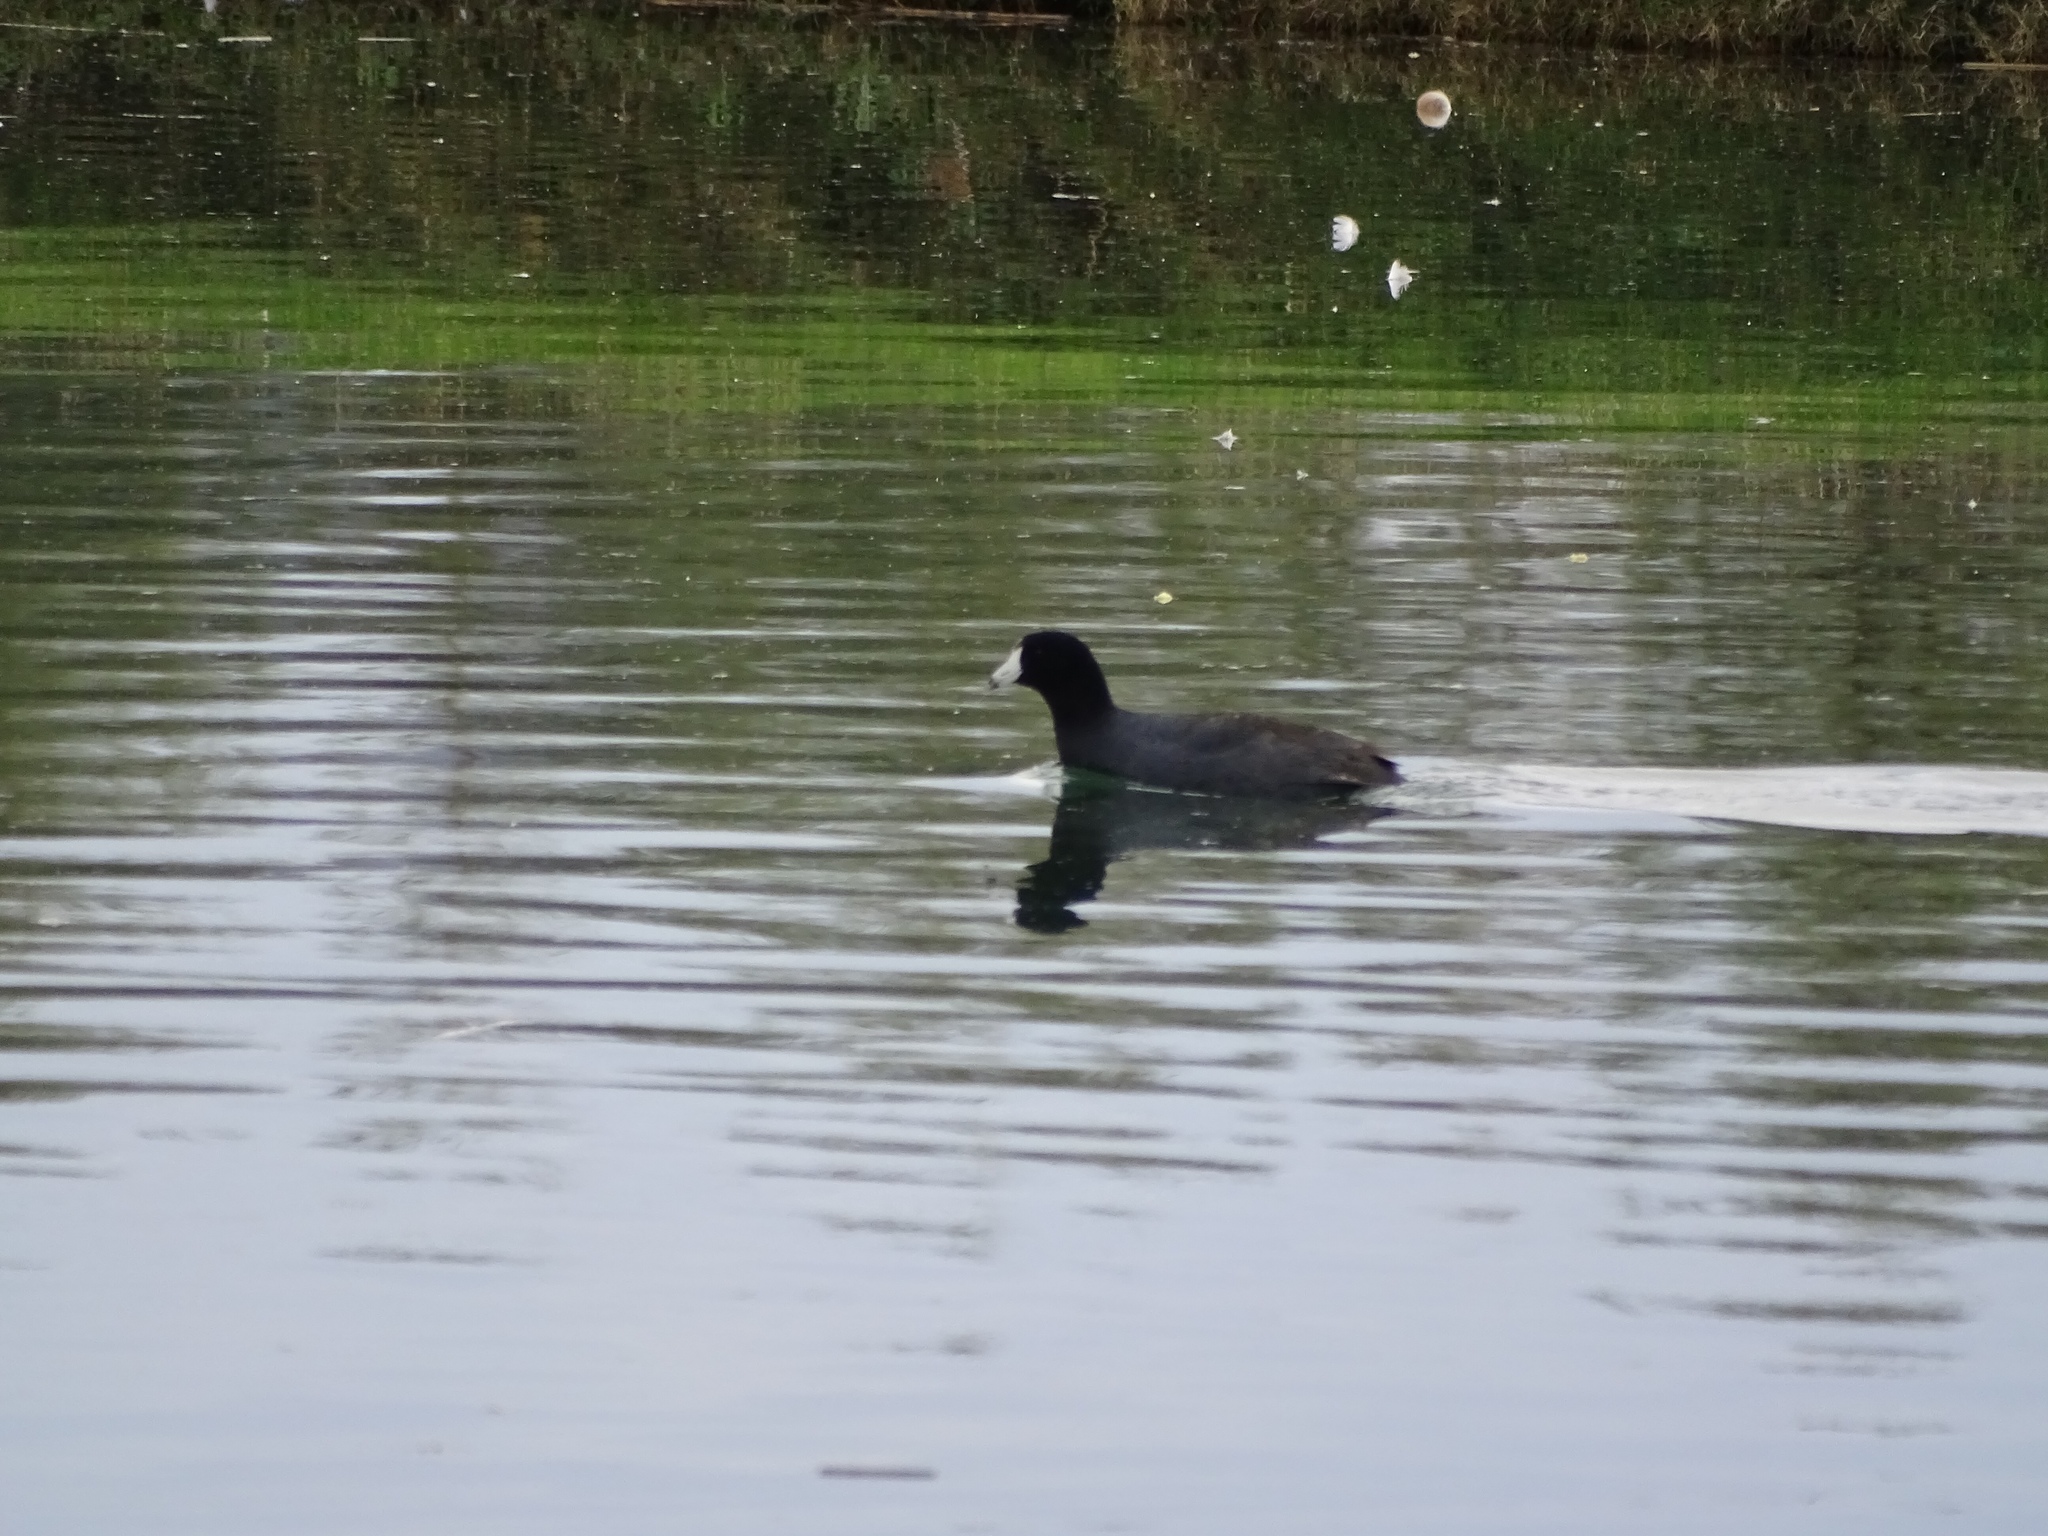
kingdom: Animalia
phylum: Chordata
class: Aves
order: Gruiformes
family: Rallidae
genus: Fulica
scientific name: Fulica americana
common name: American coot
